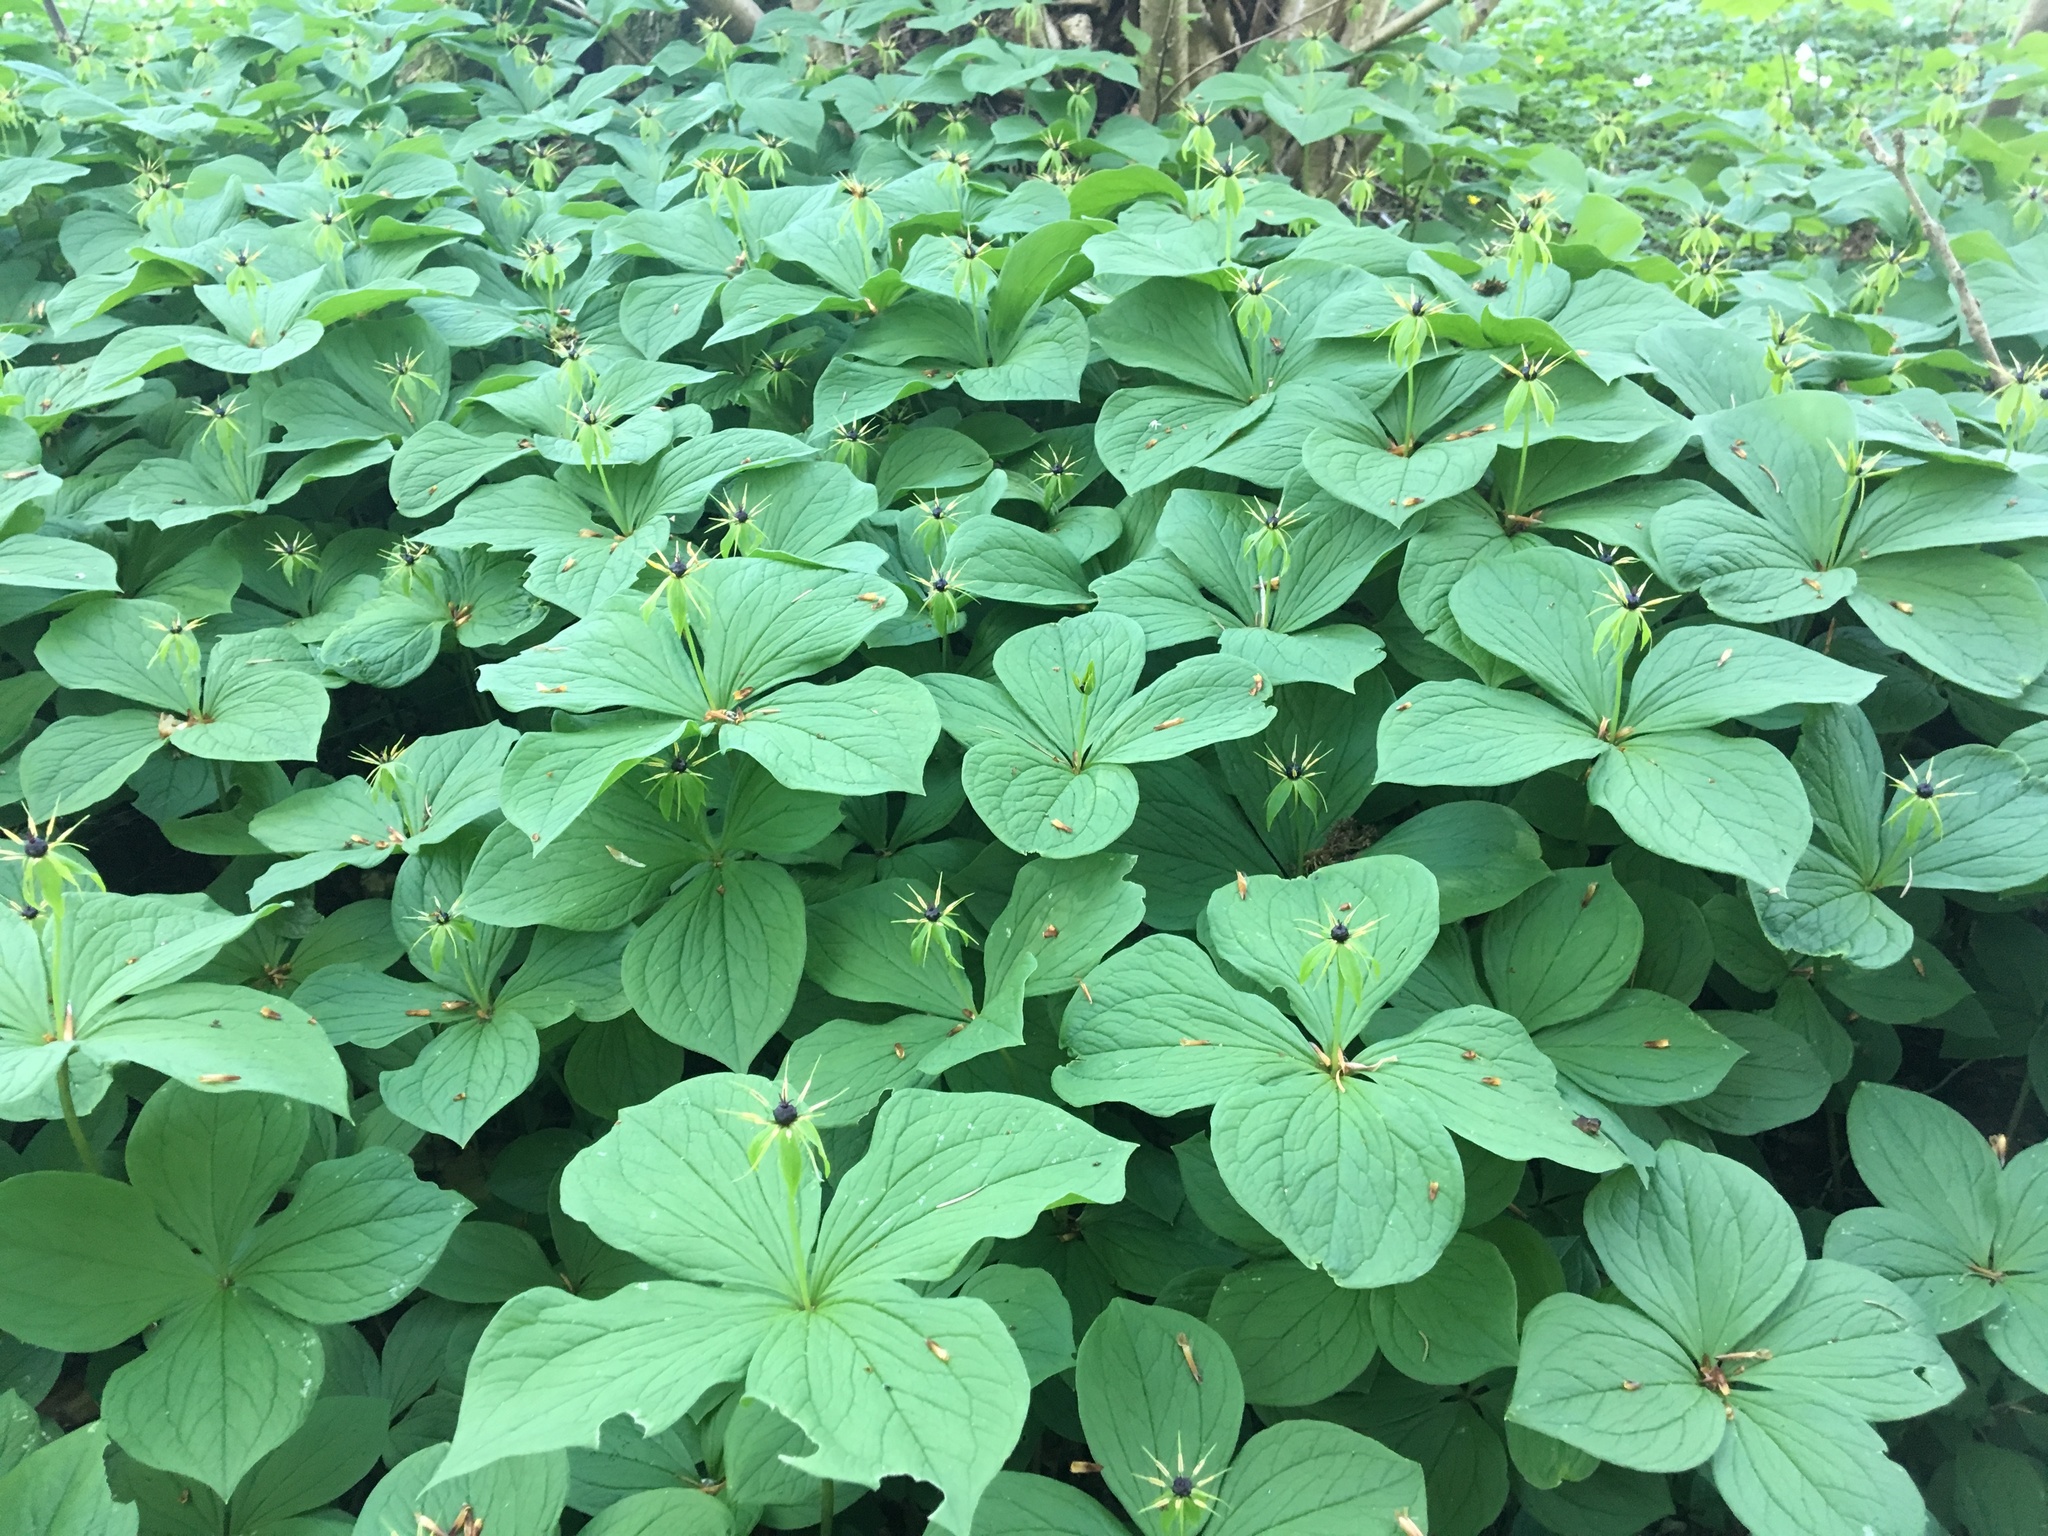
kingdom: Plantae
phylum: Tracheophyta
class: Liliopsida
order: Liliales
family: Melanthiaceae
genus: Paris
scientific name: Paris quadrifolia
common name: Herb-paris
